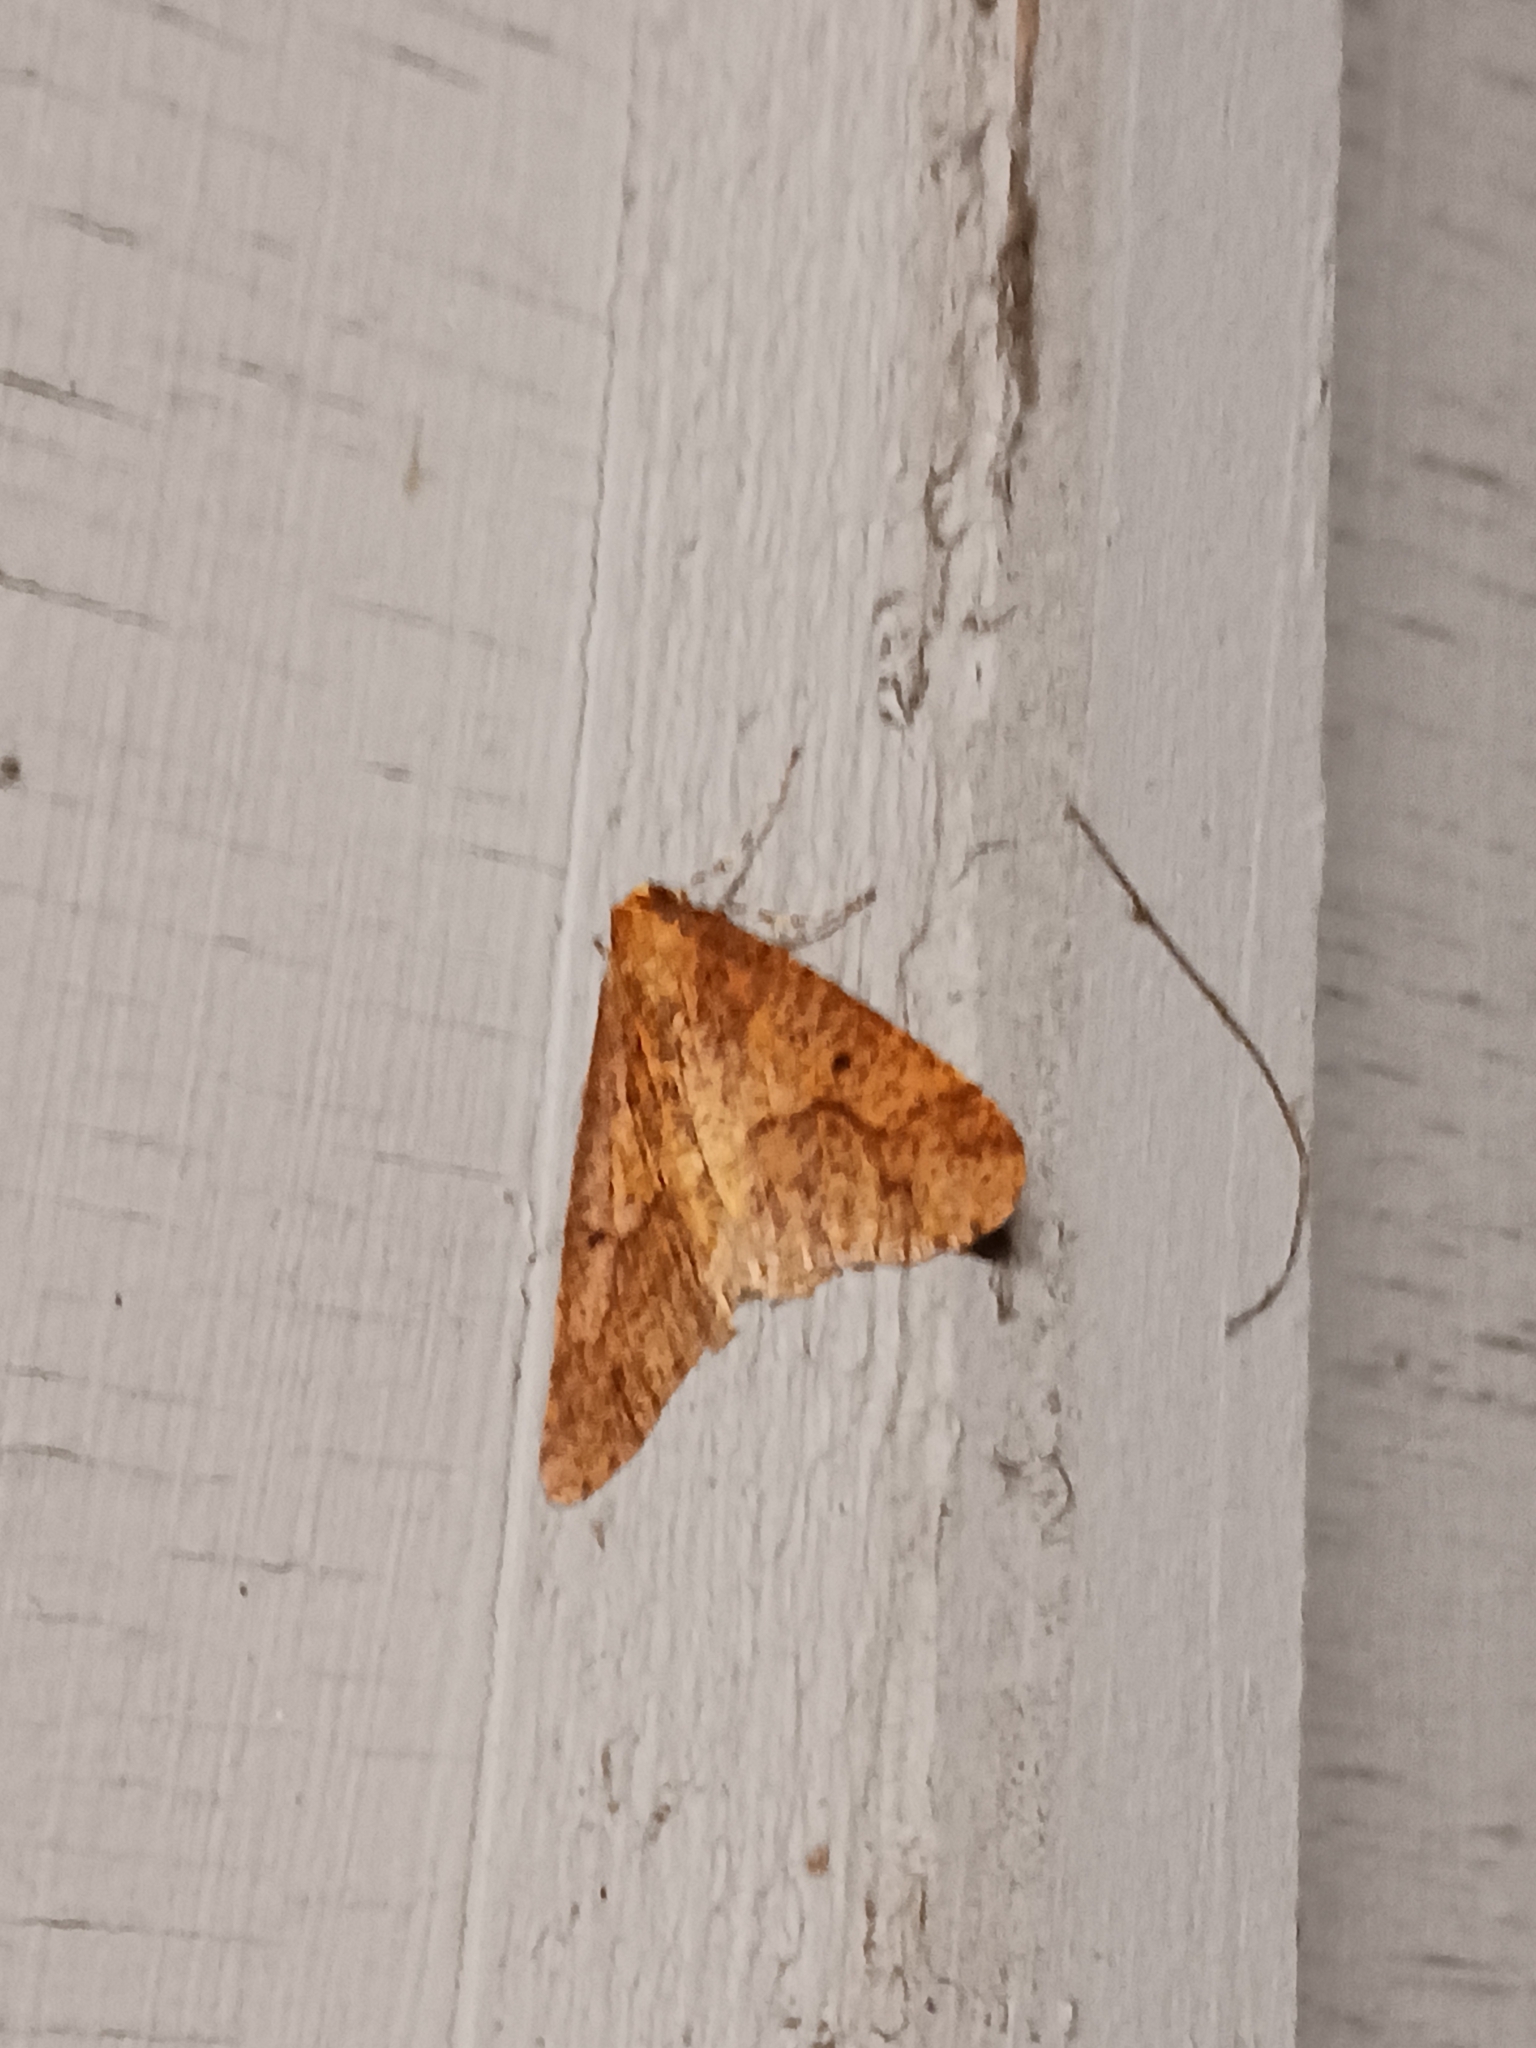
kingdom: Animalia
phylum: Arthropoda
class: Insecta
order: Lepidoptera
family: Geometridae
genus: Erannis
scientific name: Erannis defoliaria
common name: Mottled umber
